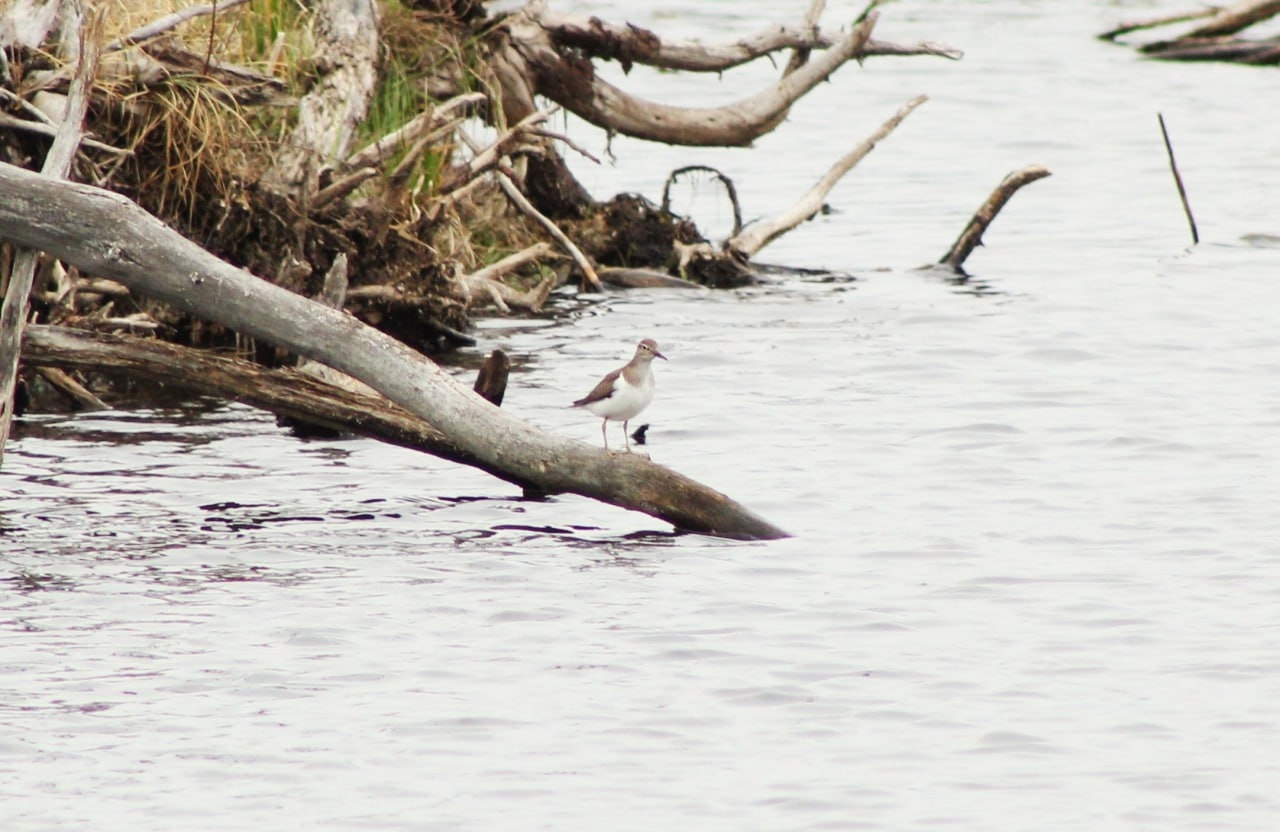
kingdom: Animalia
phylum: Chordata
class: Aves
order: Charadriiformes
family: Scolopacidae
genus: Actitis
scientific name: Actitis hypoleucos
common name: Common sandpiper
